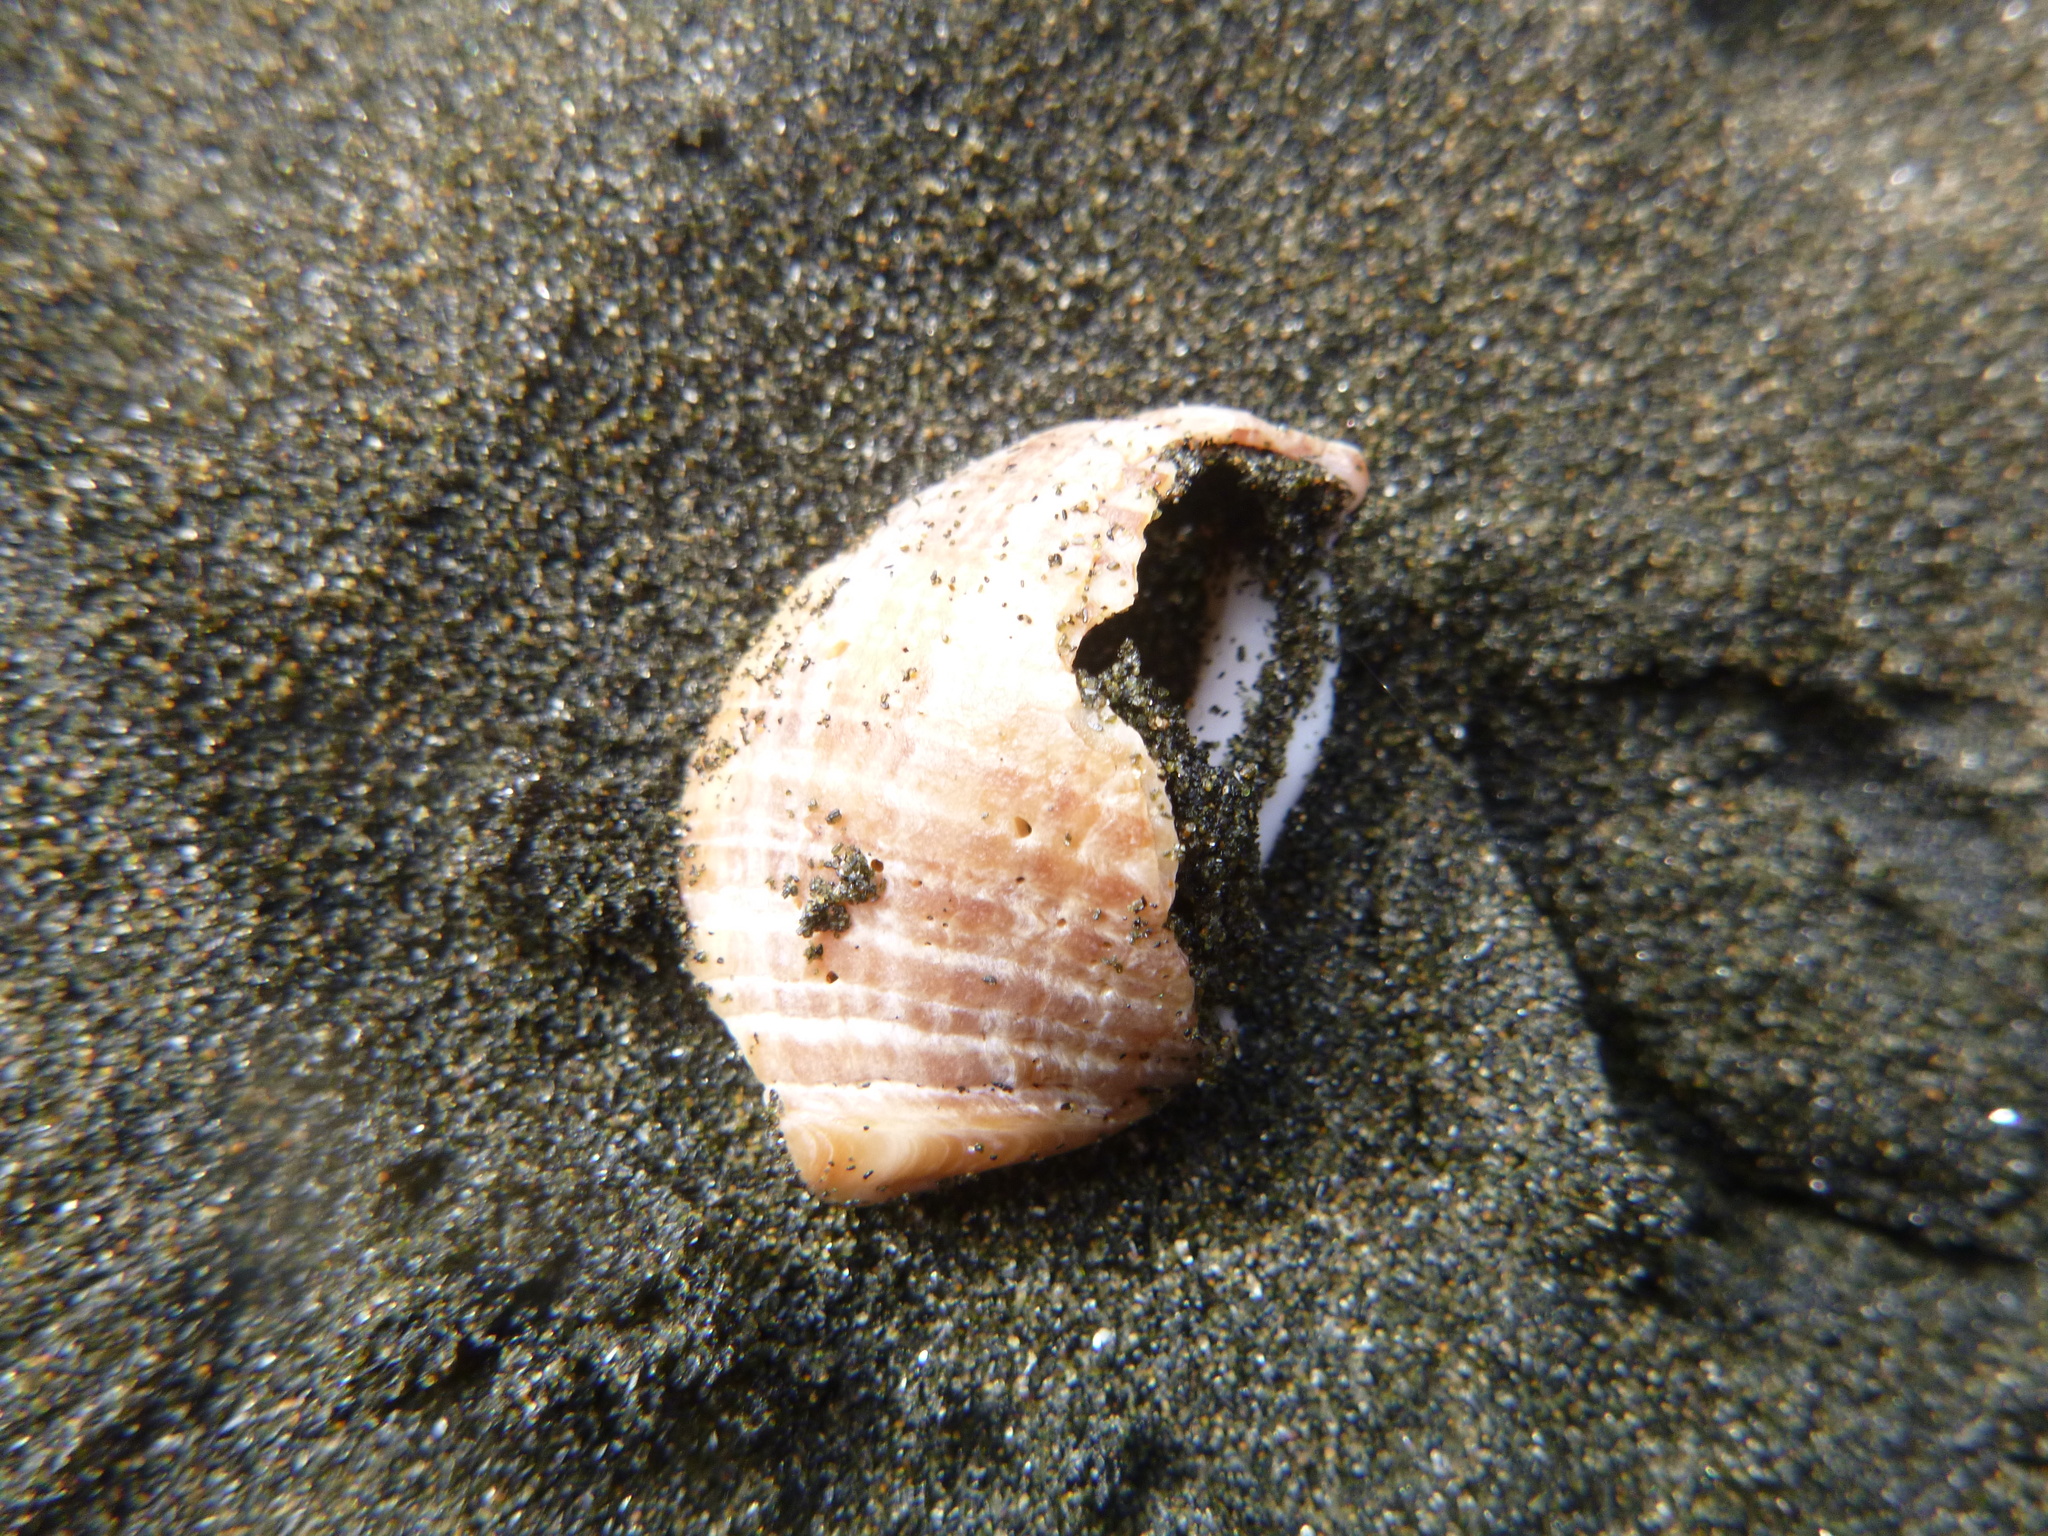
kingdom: Animalia
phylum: Mollusca
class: Gastropoda
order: Neogastropoda
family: Muricidae
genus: Dicathais
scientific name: Dicathais orbita
